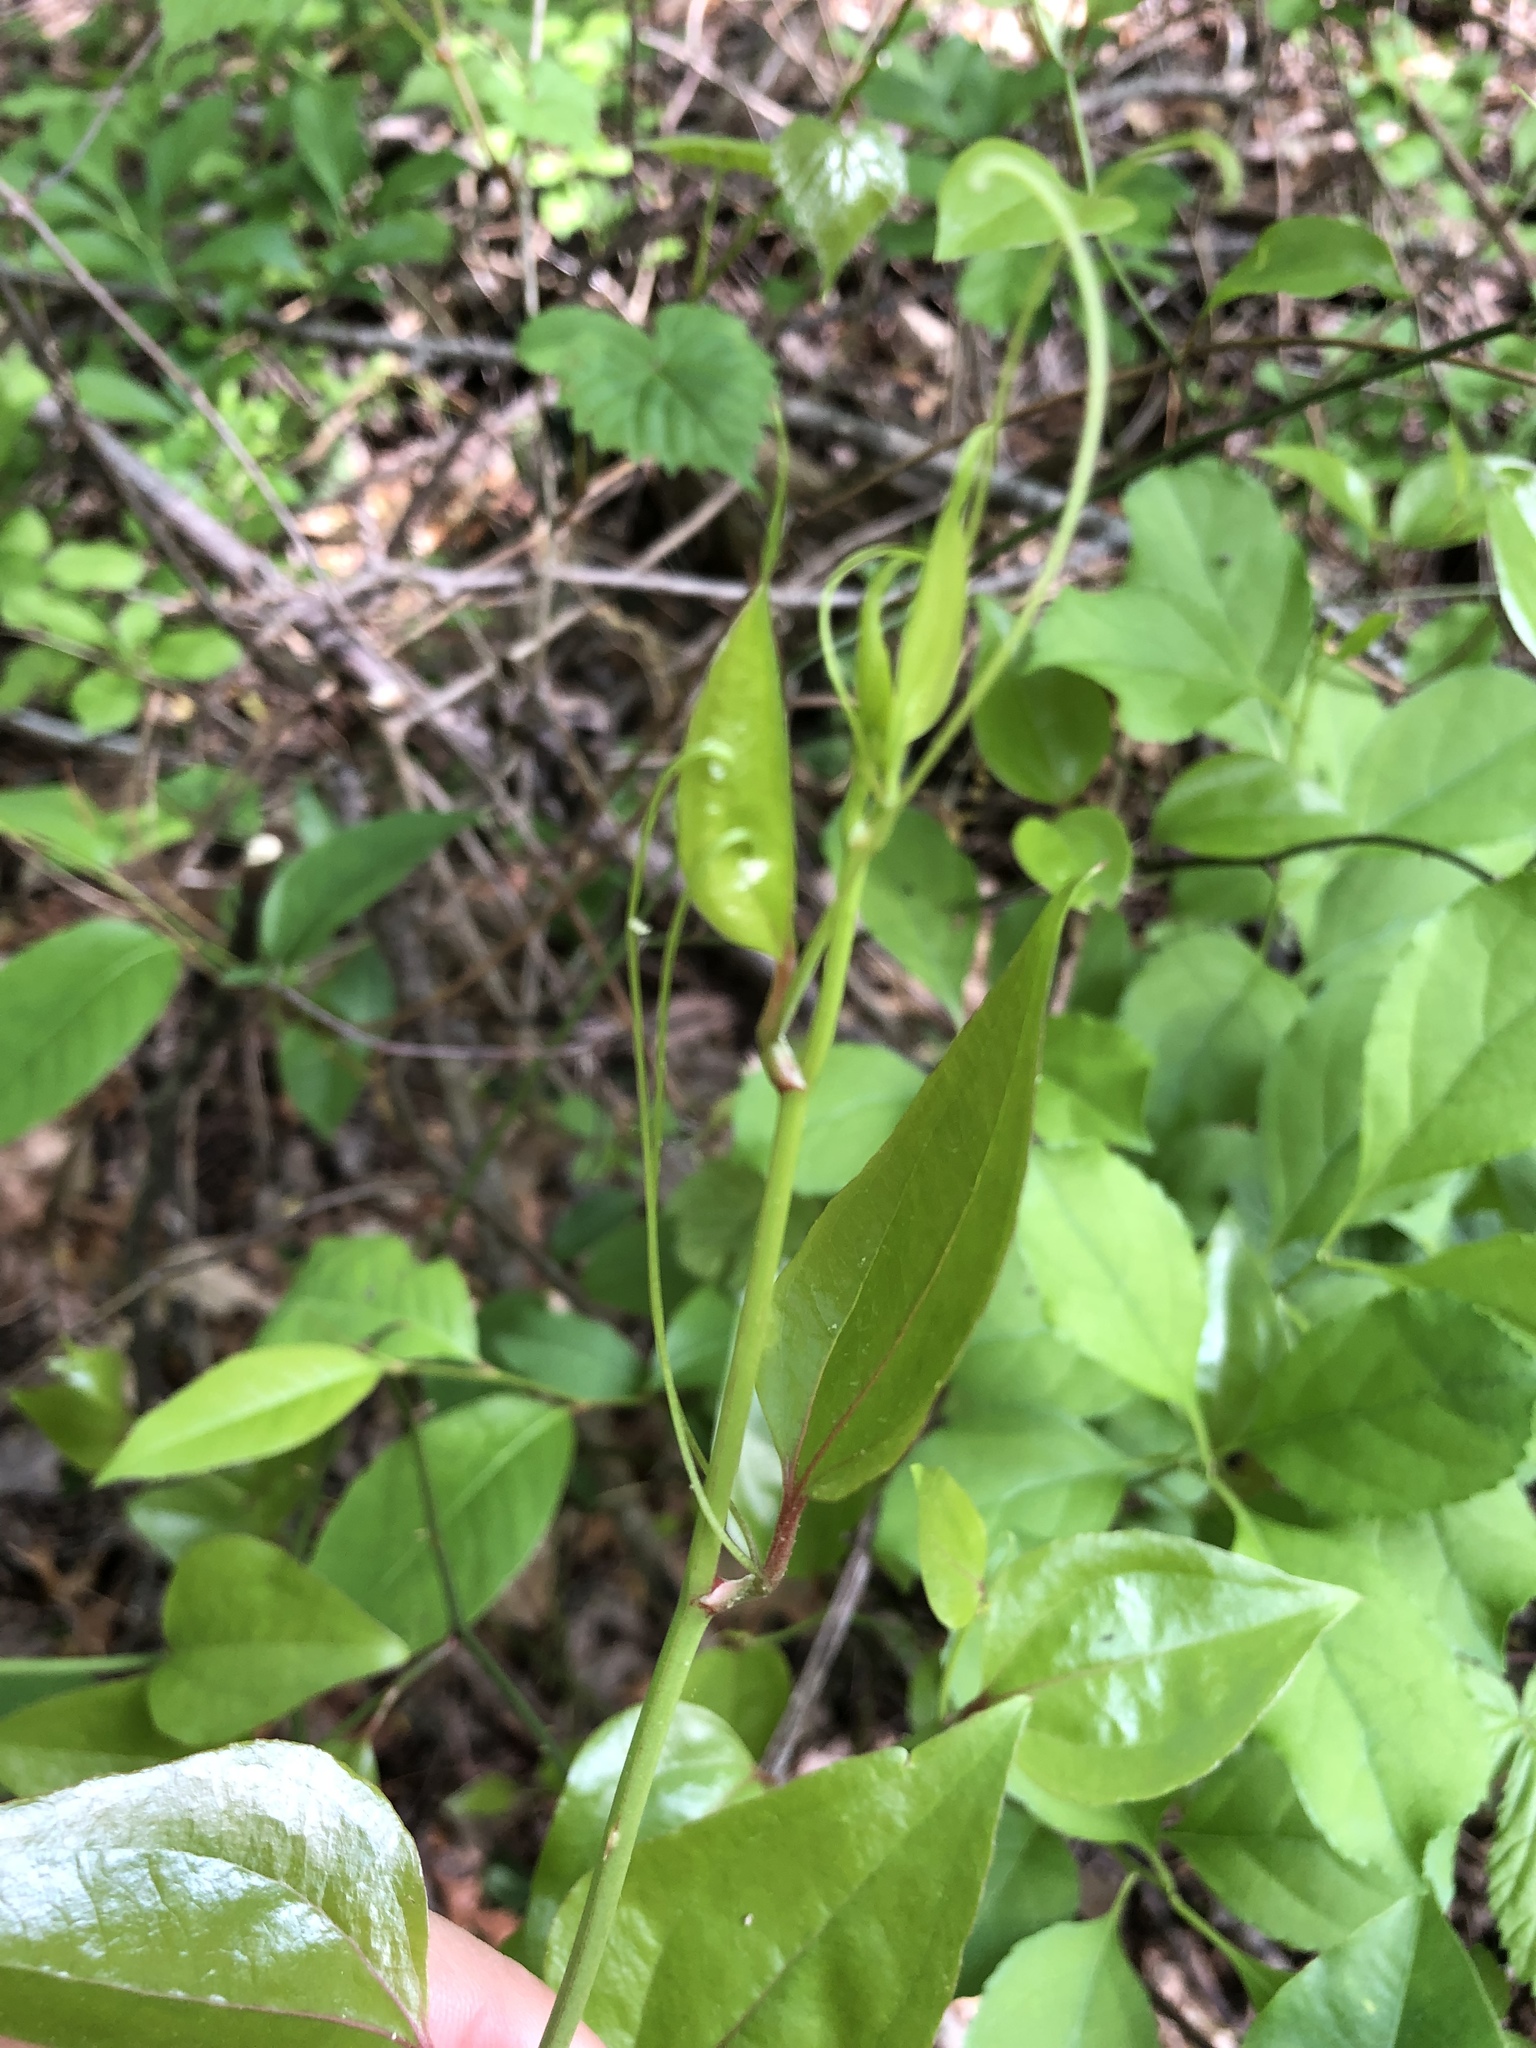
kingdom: Plantae
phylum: Tracheophyta
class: Liliopsida
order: Liliales
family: Smilacaceae
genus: Smilax
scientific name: Smilax rotundifolia
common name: Bullbriar
